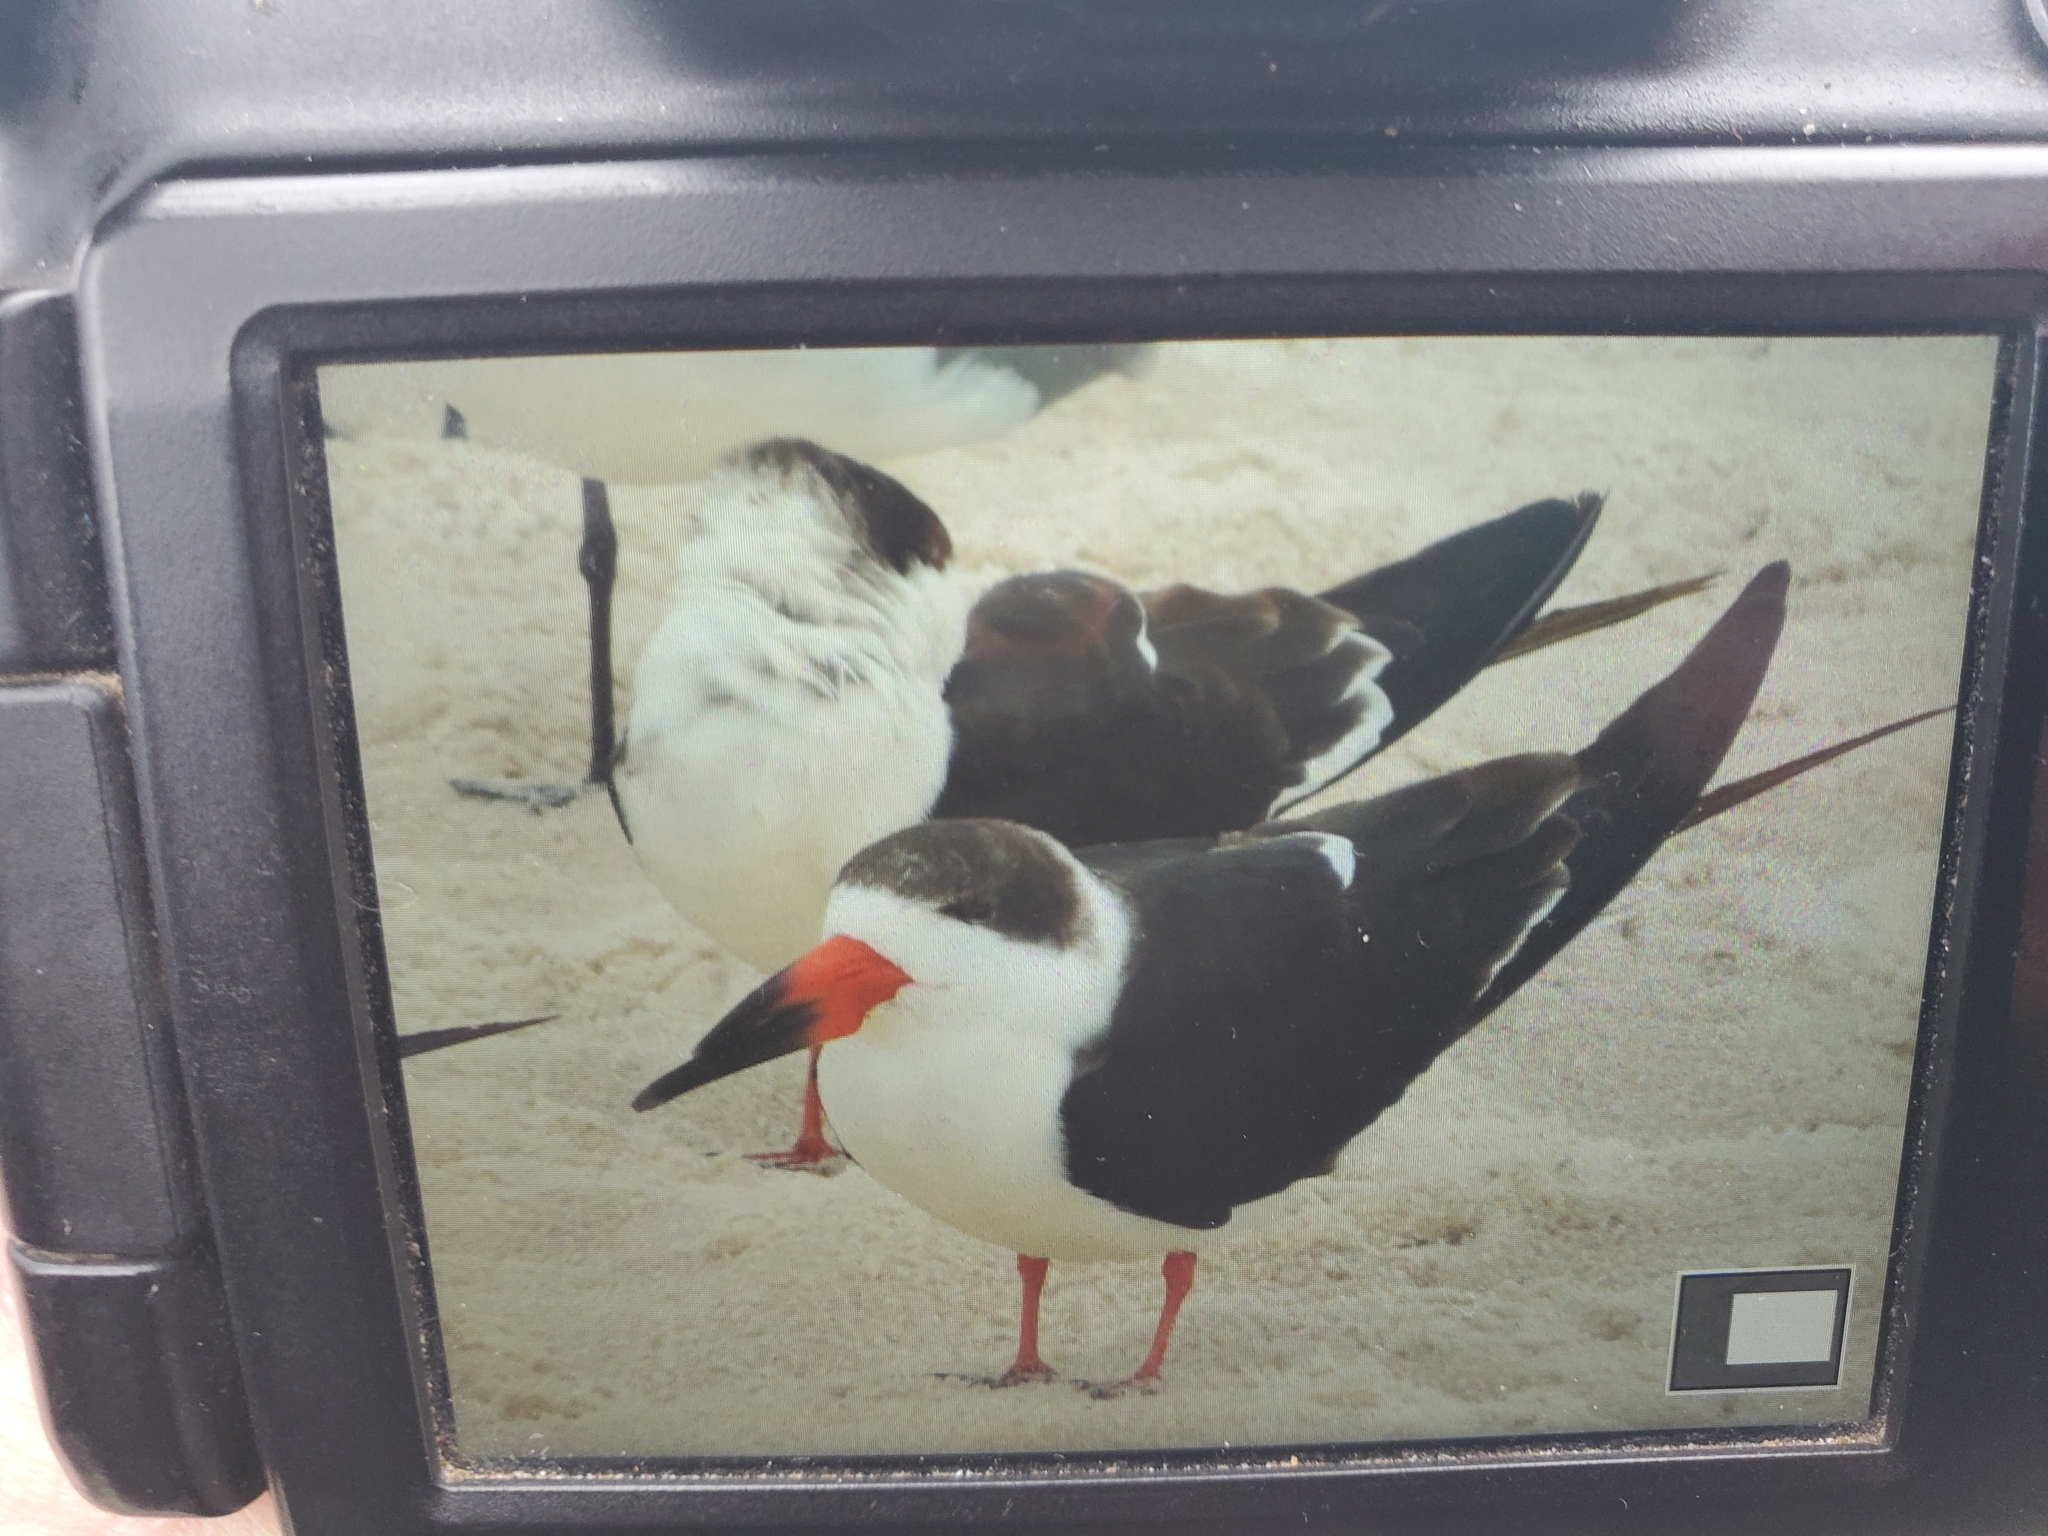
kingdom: Animalia
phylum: Chordata
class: Aves
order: Charadriiformes
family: Laridae
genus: Rynchops
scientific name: Rynchops niger
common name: Black skimmer
